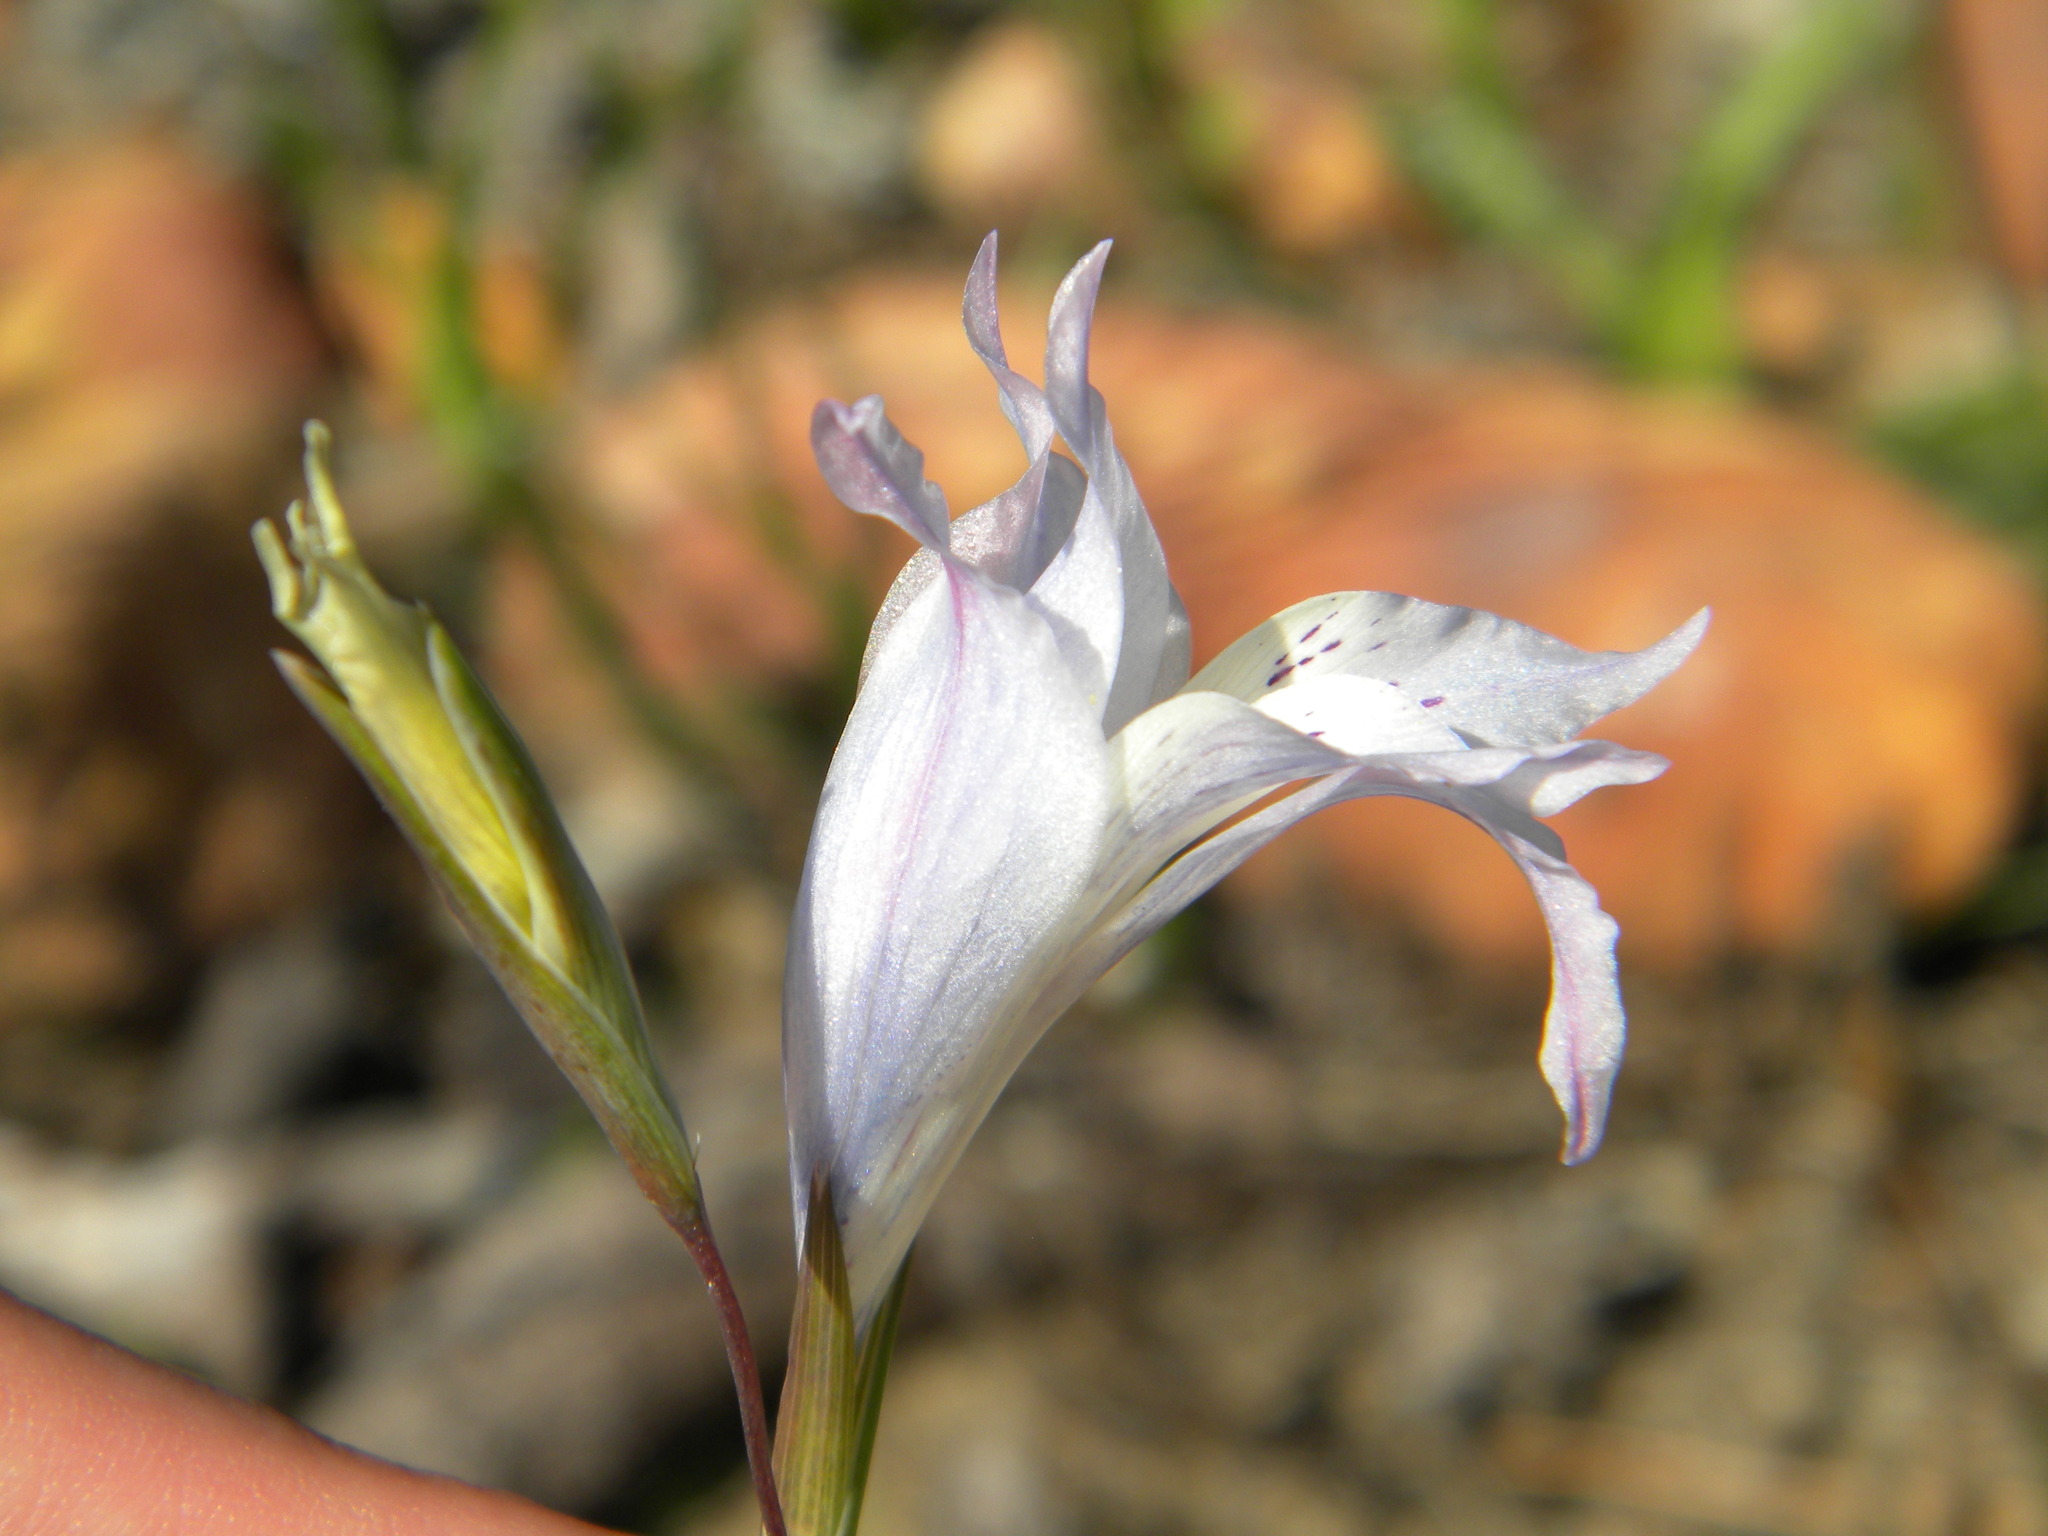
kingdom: Plantae
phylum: Tracheophyta
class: Liliopsida
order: Asparagales
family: Iridaceae
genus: Gladiolus
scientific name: Gladiolus gracilis
